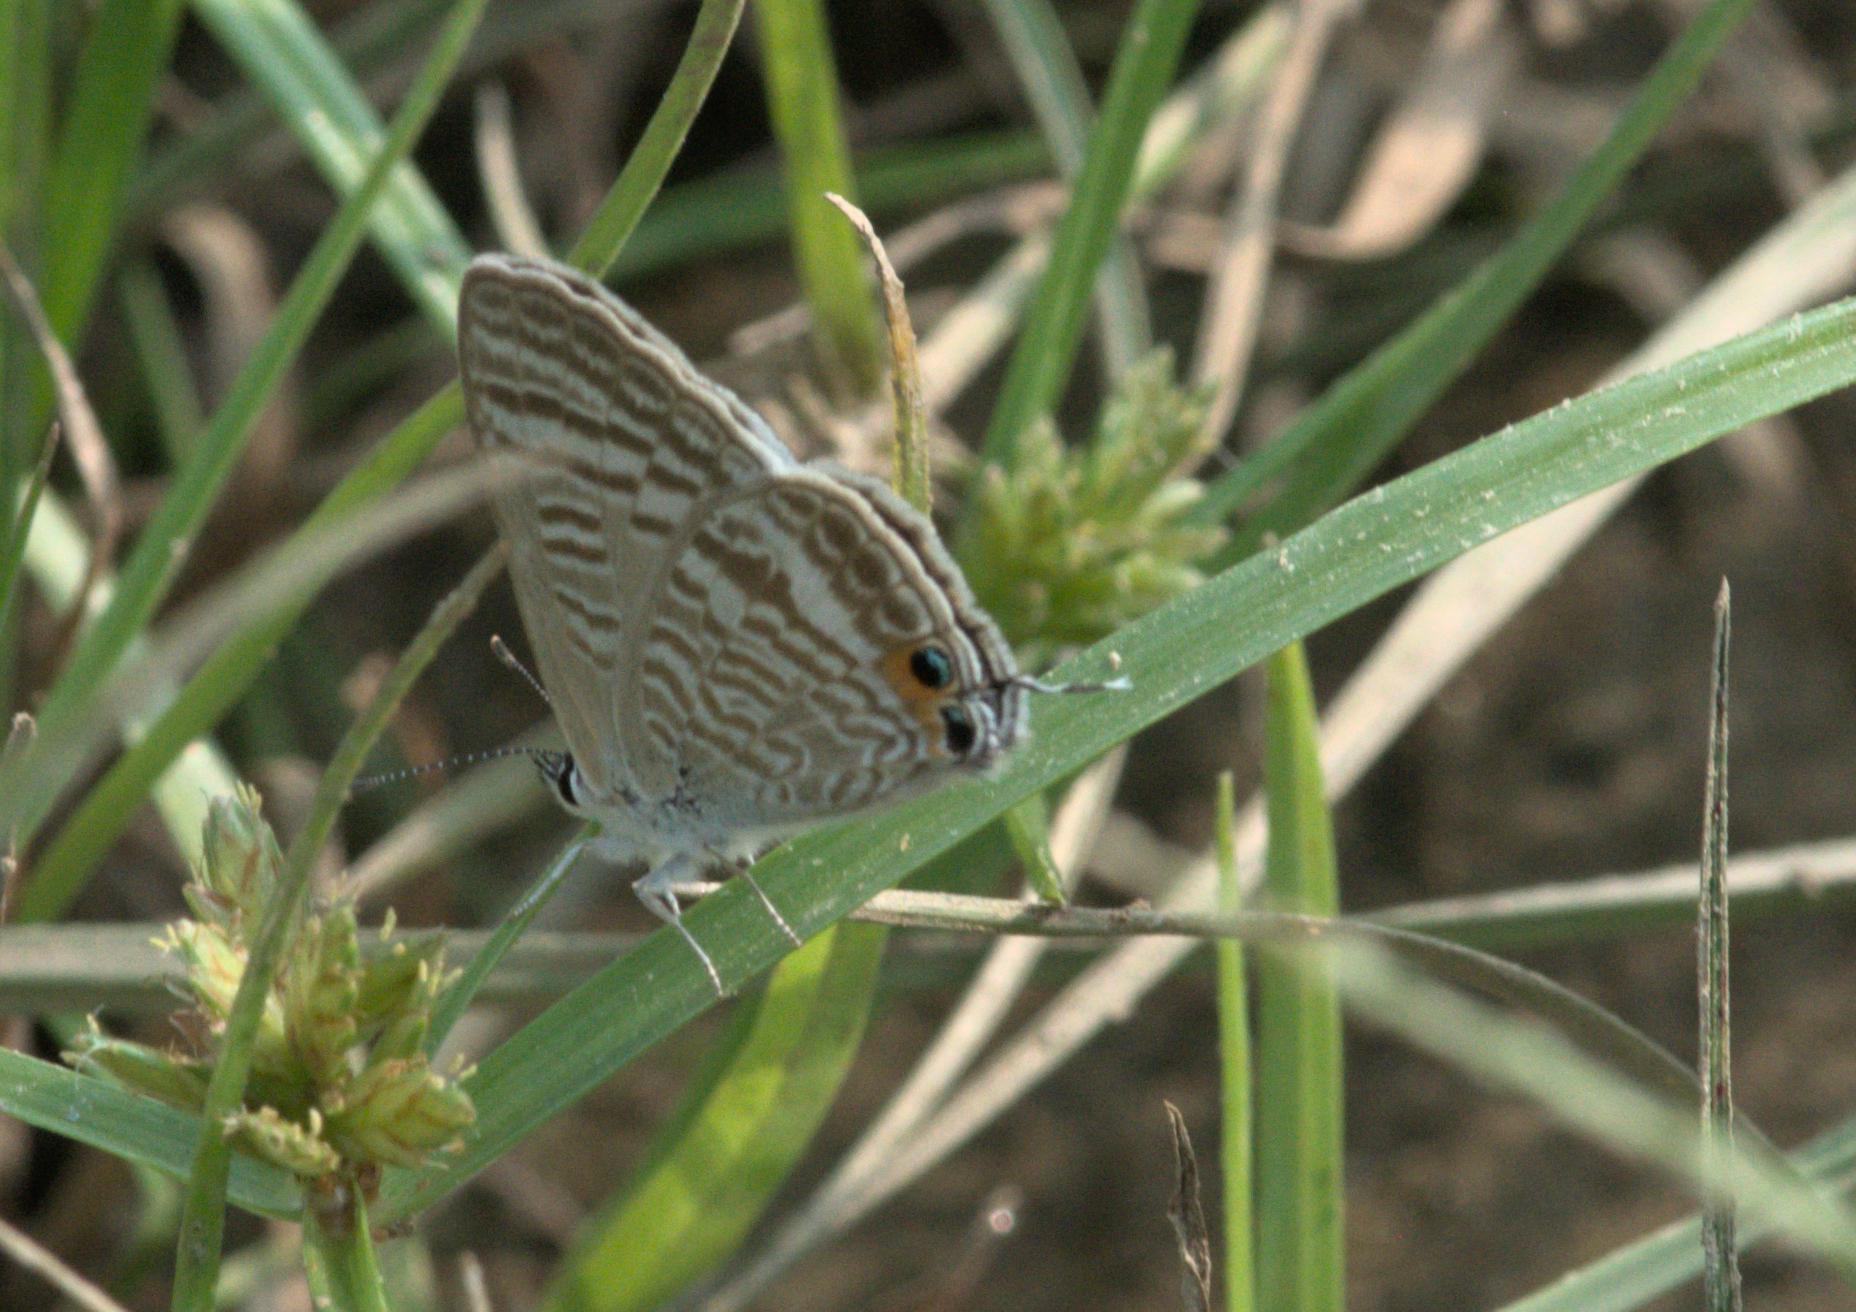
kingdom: Animalia
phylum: Arthropoda
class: Insecta
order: Lepidoptera
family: Lycaenidae
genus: Lampides
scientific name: Lampides boeticus
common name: Long-tailed blue
